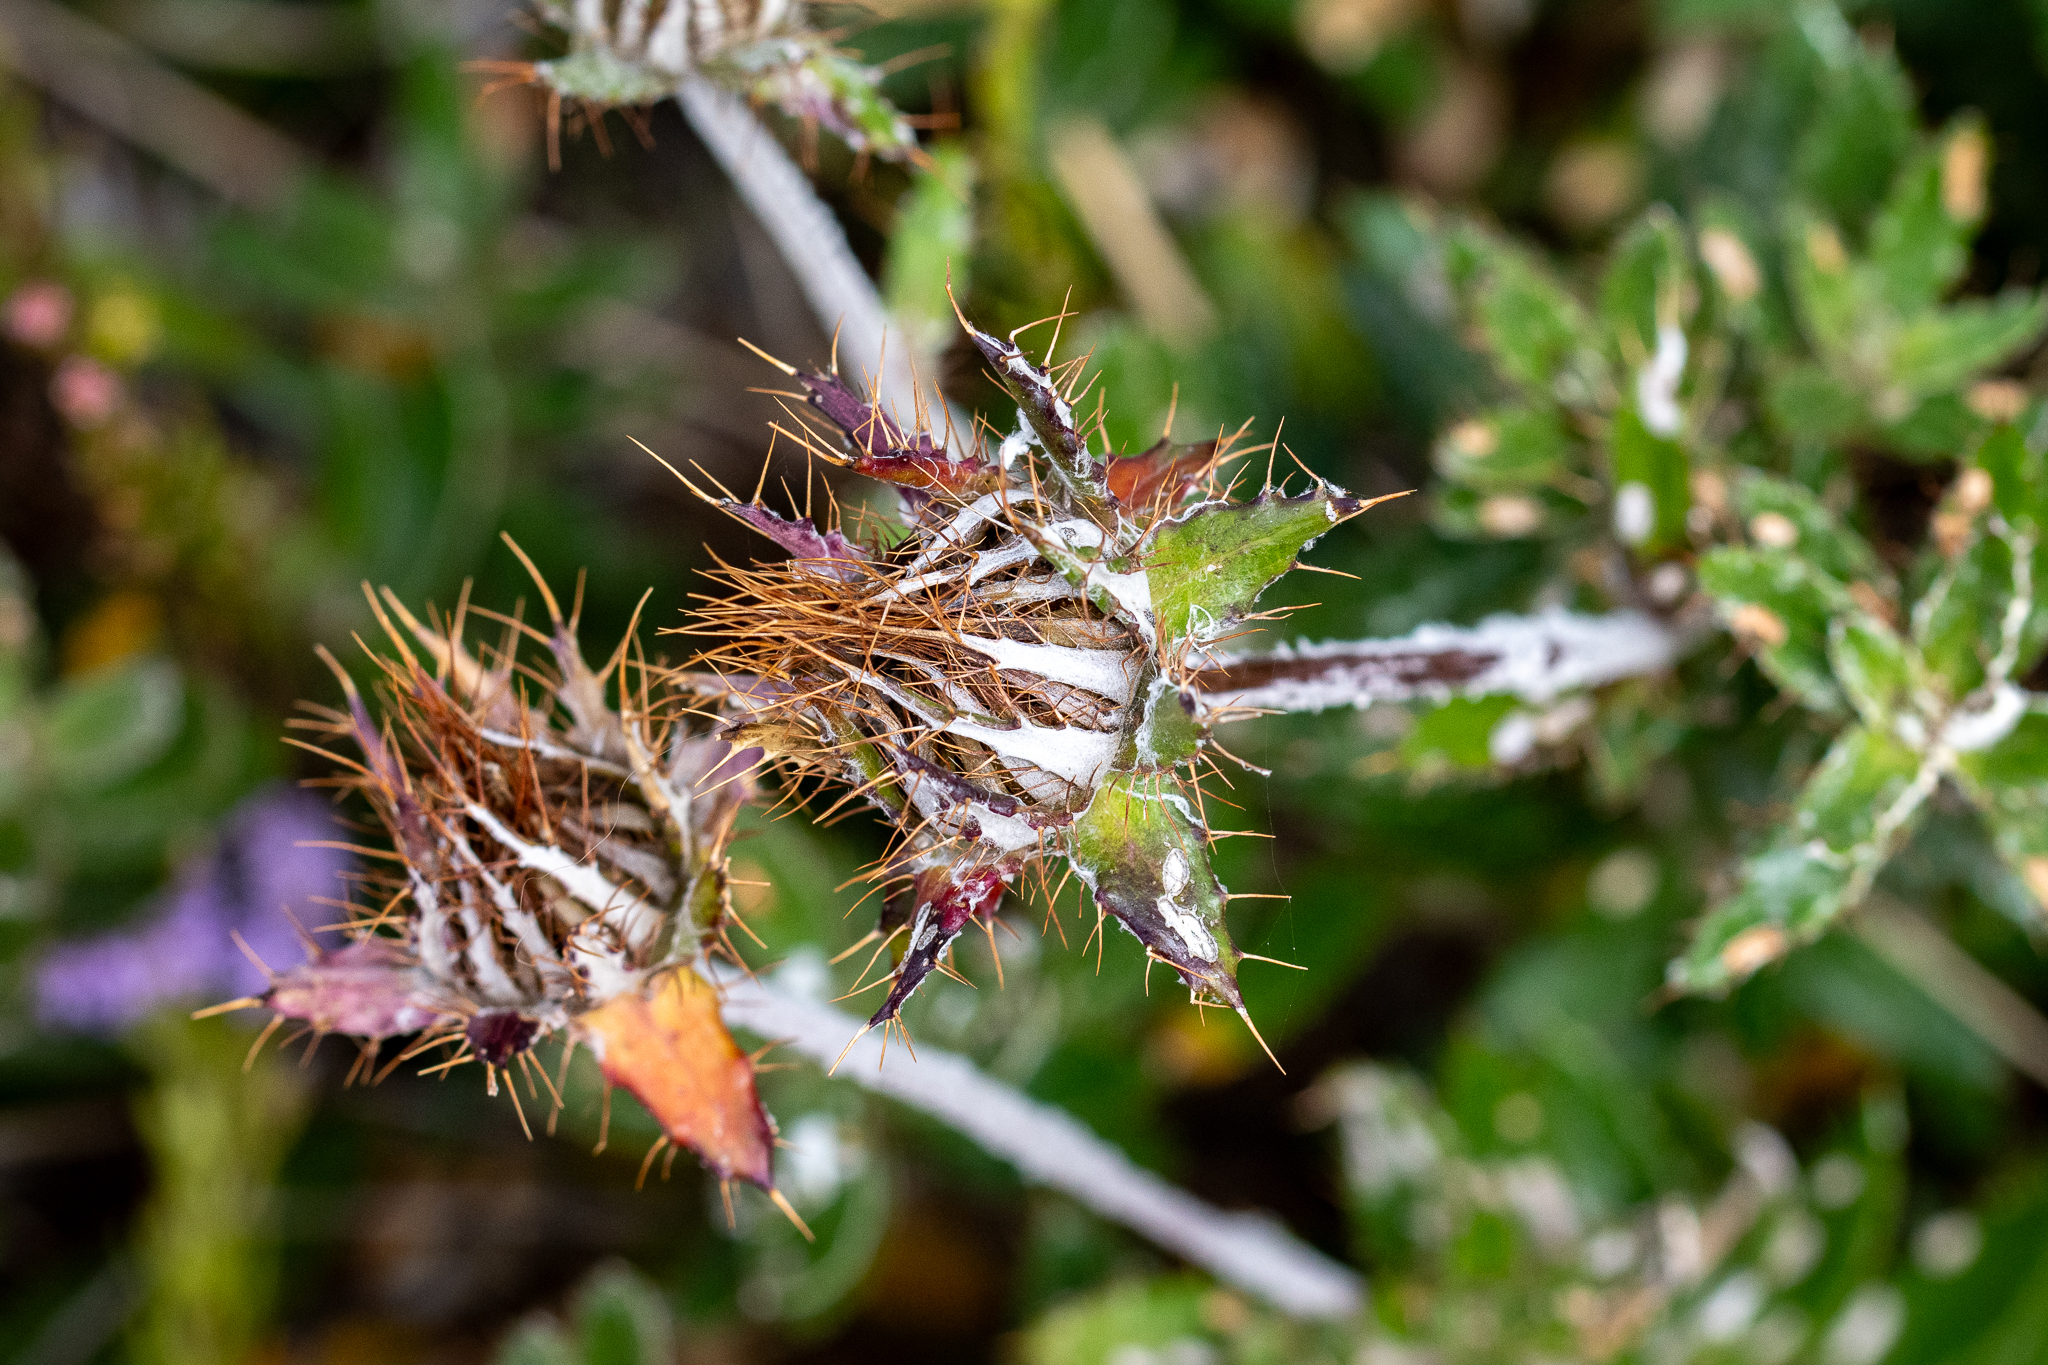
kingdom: Plantae
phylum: Tracheophyta
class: Magnoliopsida
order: Asterales
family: Asteraceae
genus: Berkheya
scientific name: Berkheya barbata
